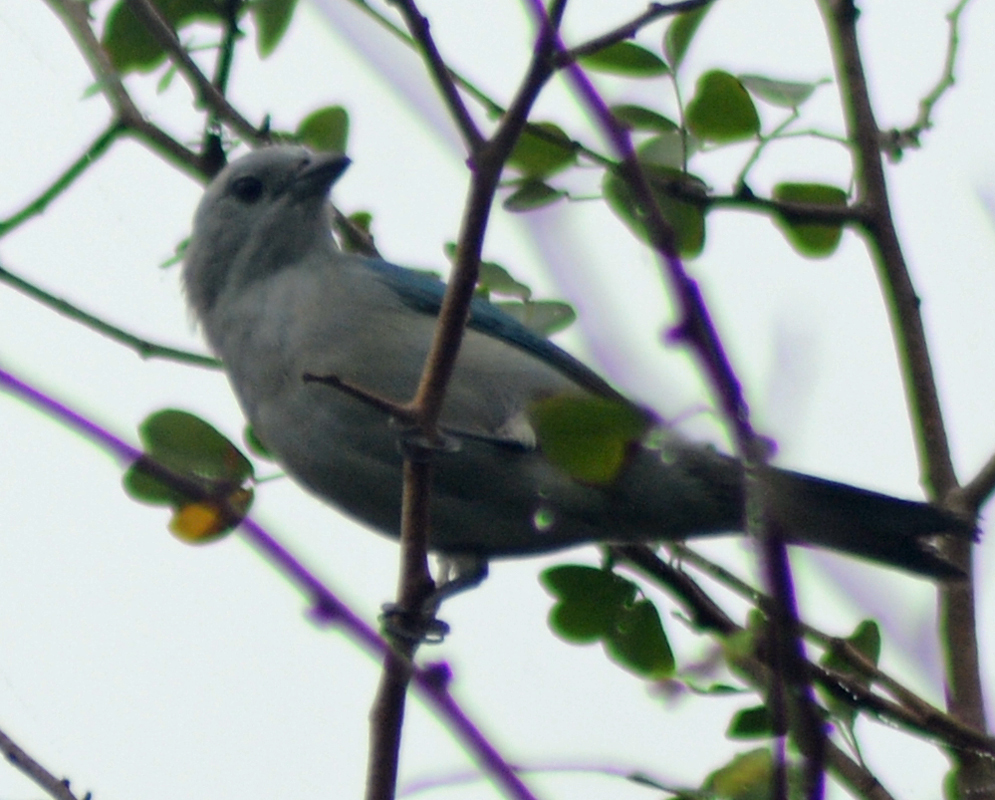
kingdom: Animalia
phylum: Chordata
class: Aves
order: Passeriformes
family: Thraupidae
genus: Thraupis
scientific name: Thraupis episcopus
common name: Blue-grey tanager
